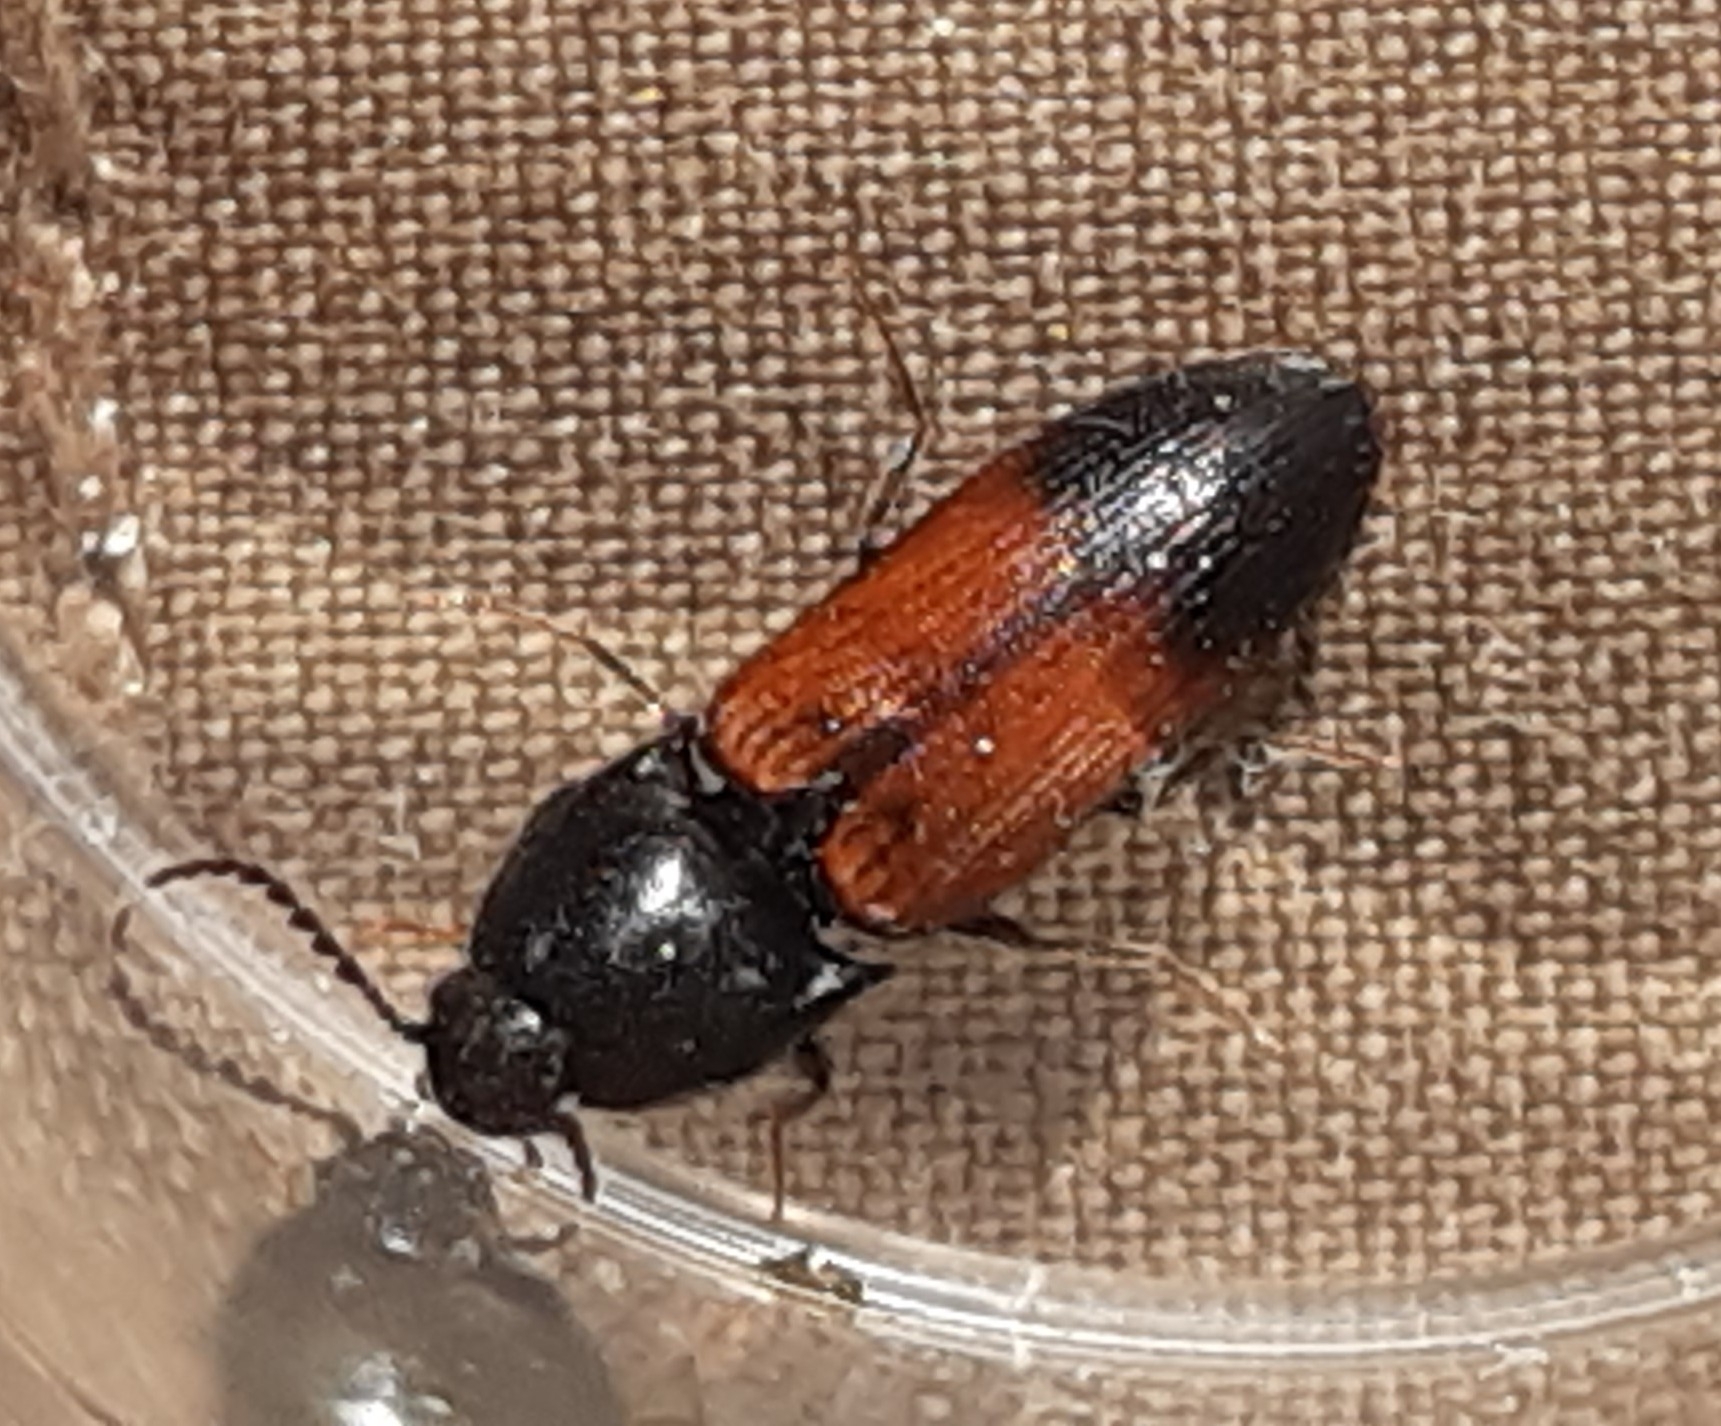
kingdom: Animalia
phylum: Arthropoda
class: Insecta
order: Coleoptera
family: Elateridae
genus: Ampedus
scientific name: Ampedus balteatus
